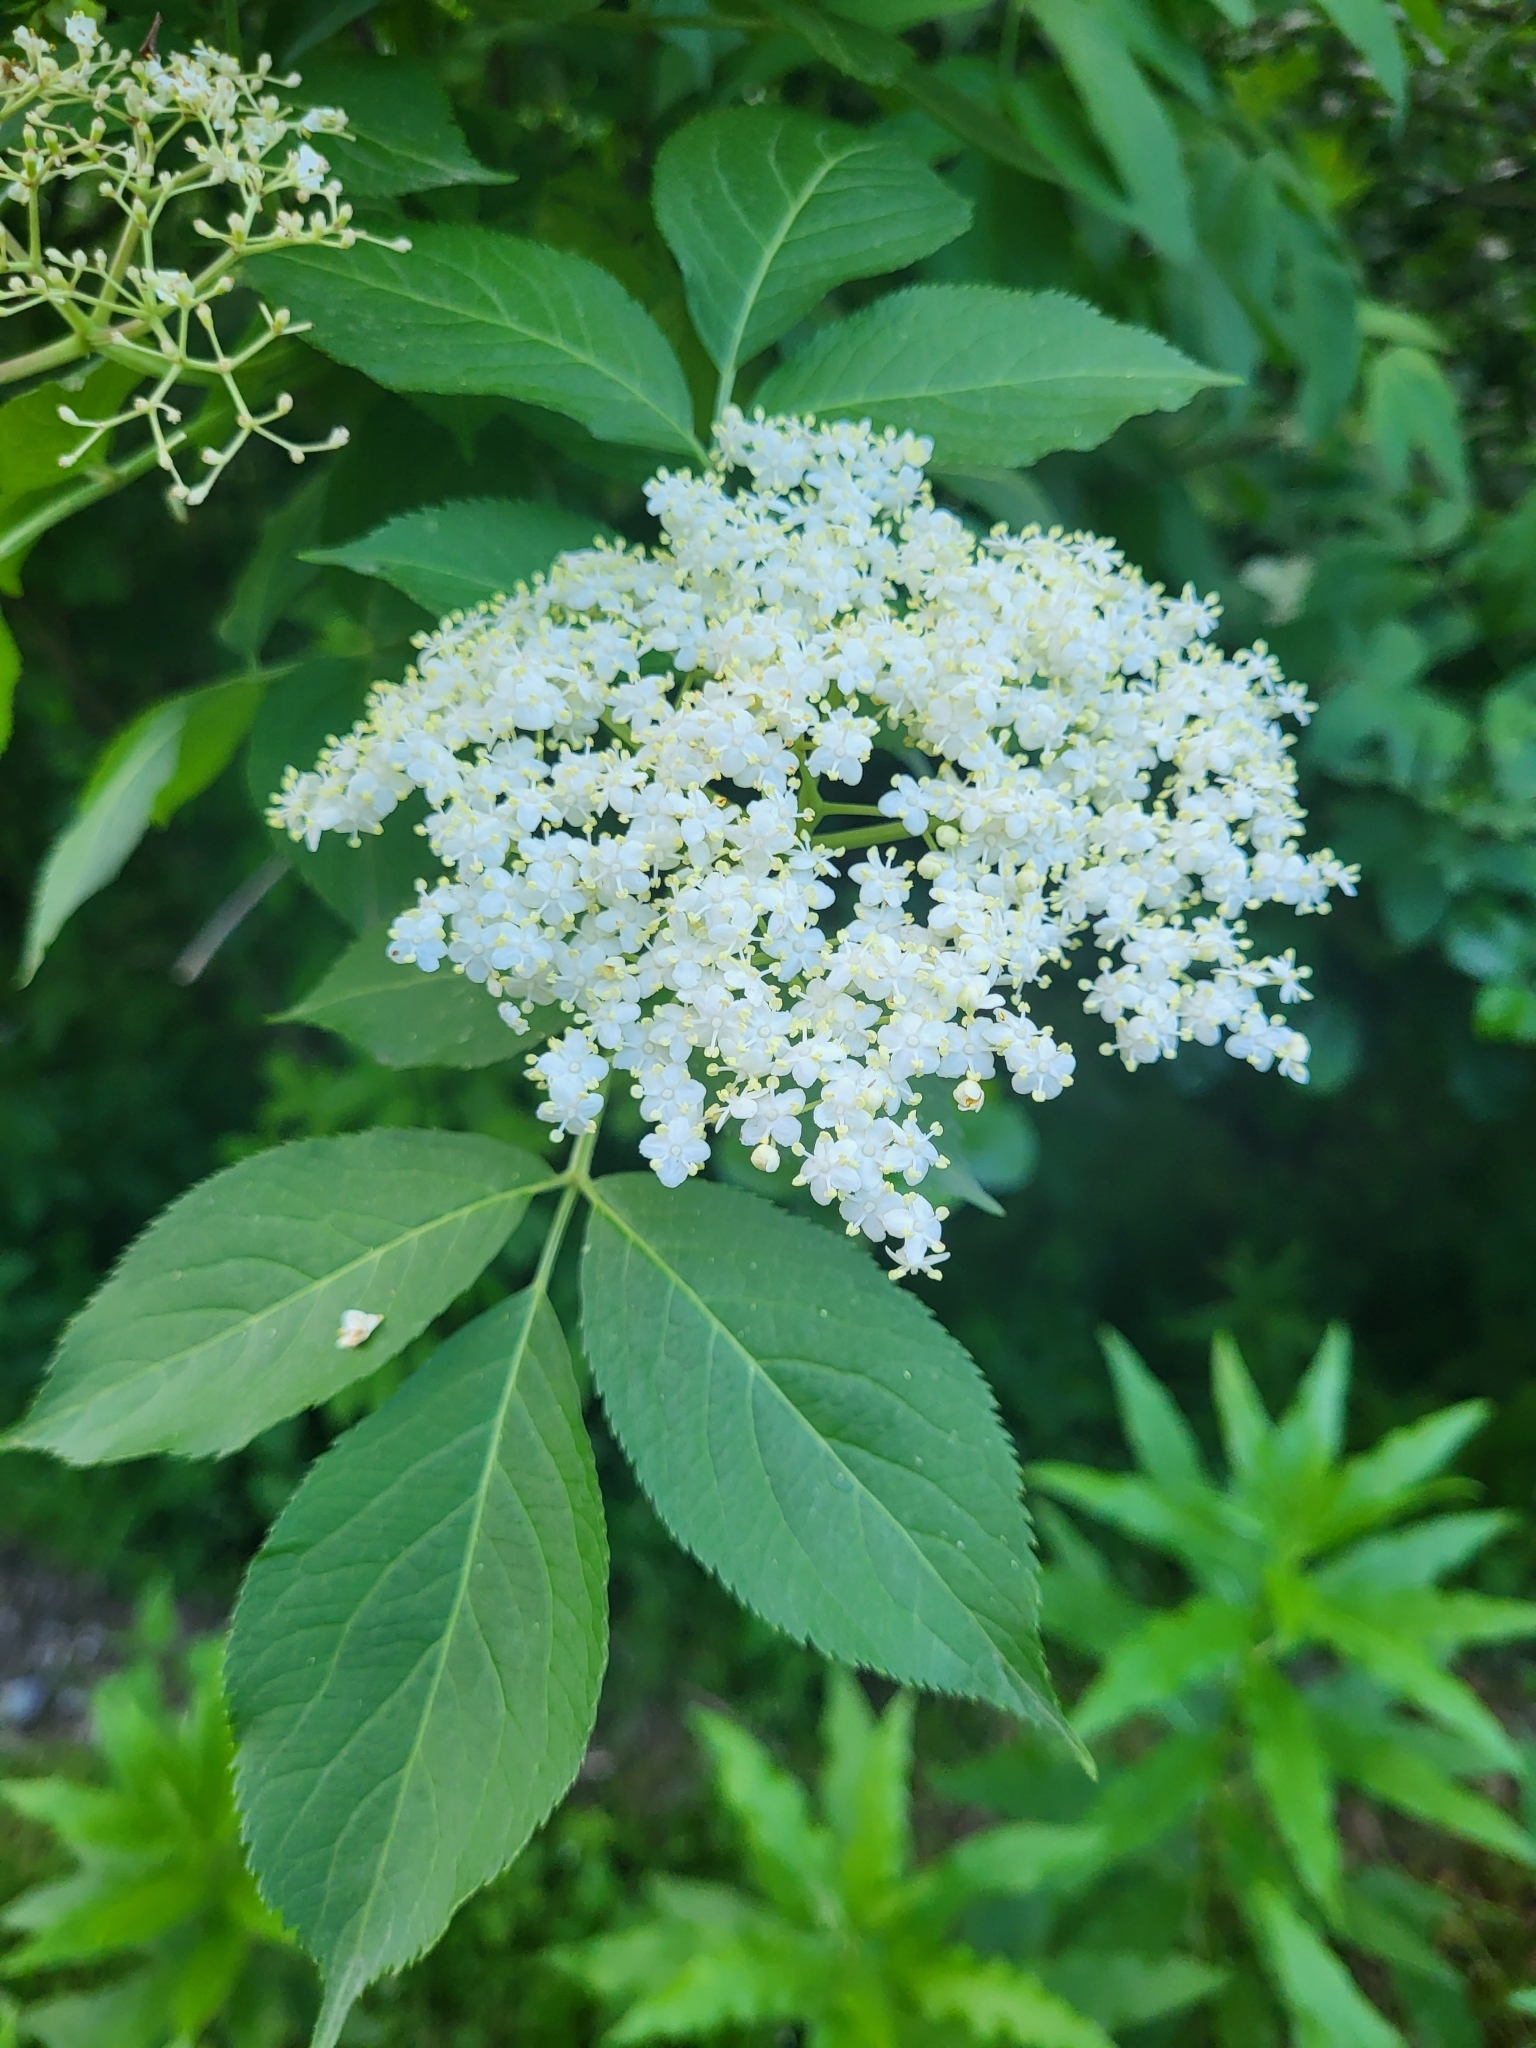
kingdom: Plantae
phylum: Tracheophyta
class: Magnoliopsida
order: Dipsacales
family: Viburnaceae
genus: Sambucus
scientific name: Sambucus nigra
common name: Elder
